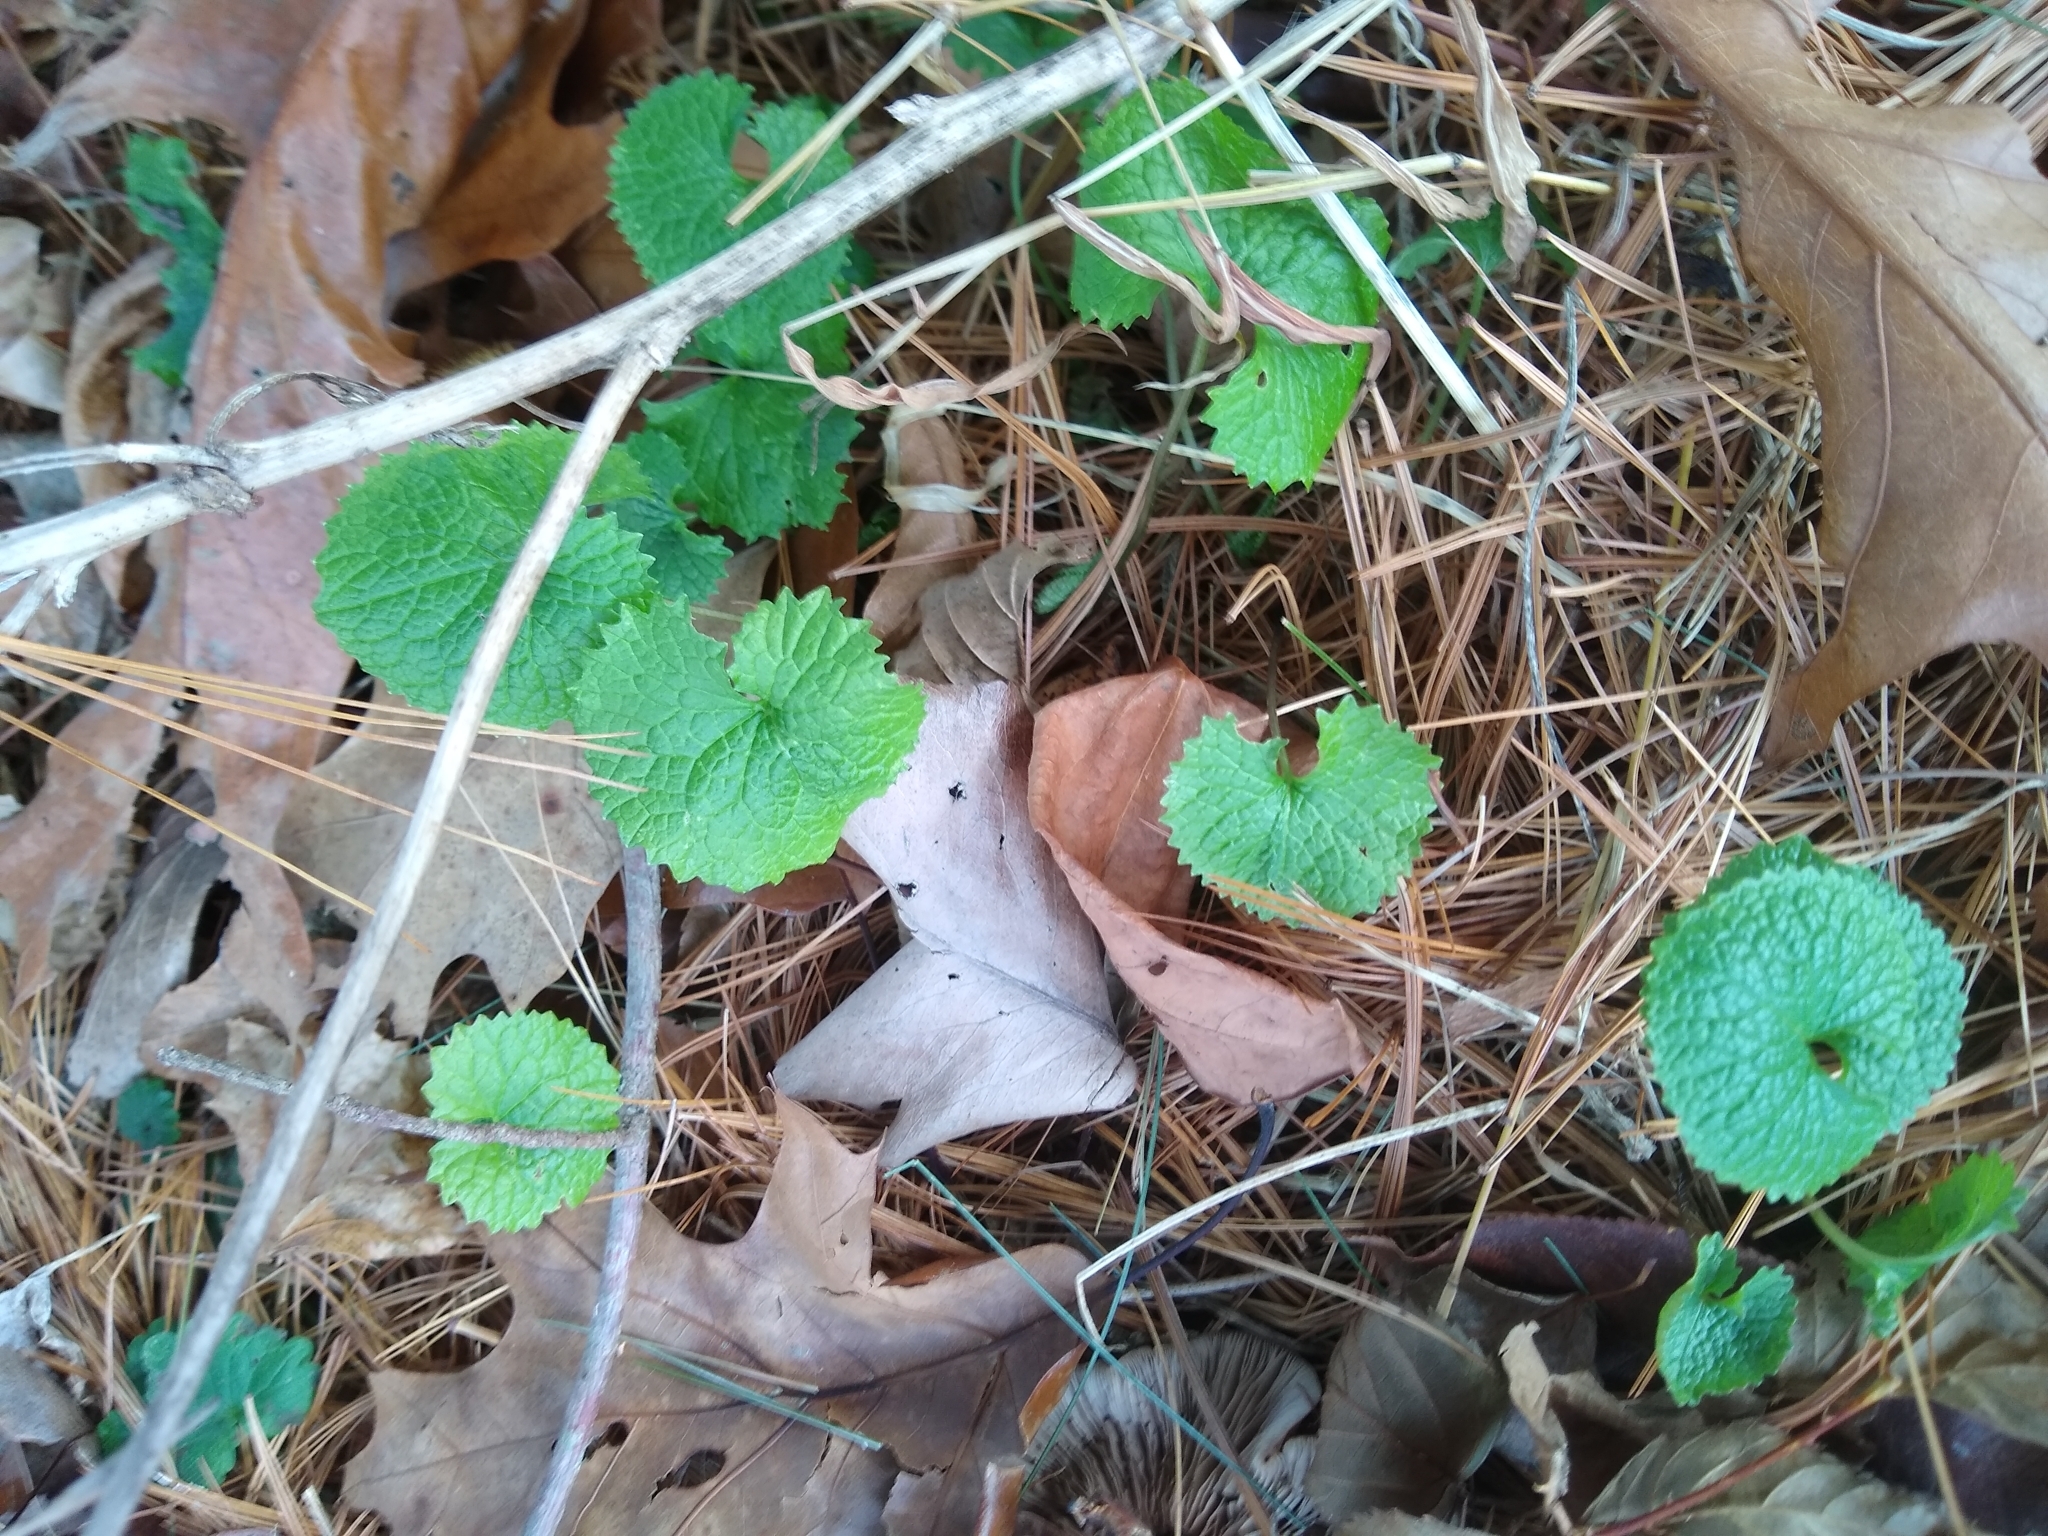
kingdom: Plantae
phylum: Tracheophyta
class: Magnoliopsida
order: Brassicales
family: Brassicaceae
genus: Alliaria
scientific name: Alliaria petiolata
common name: Garlic mustard
